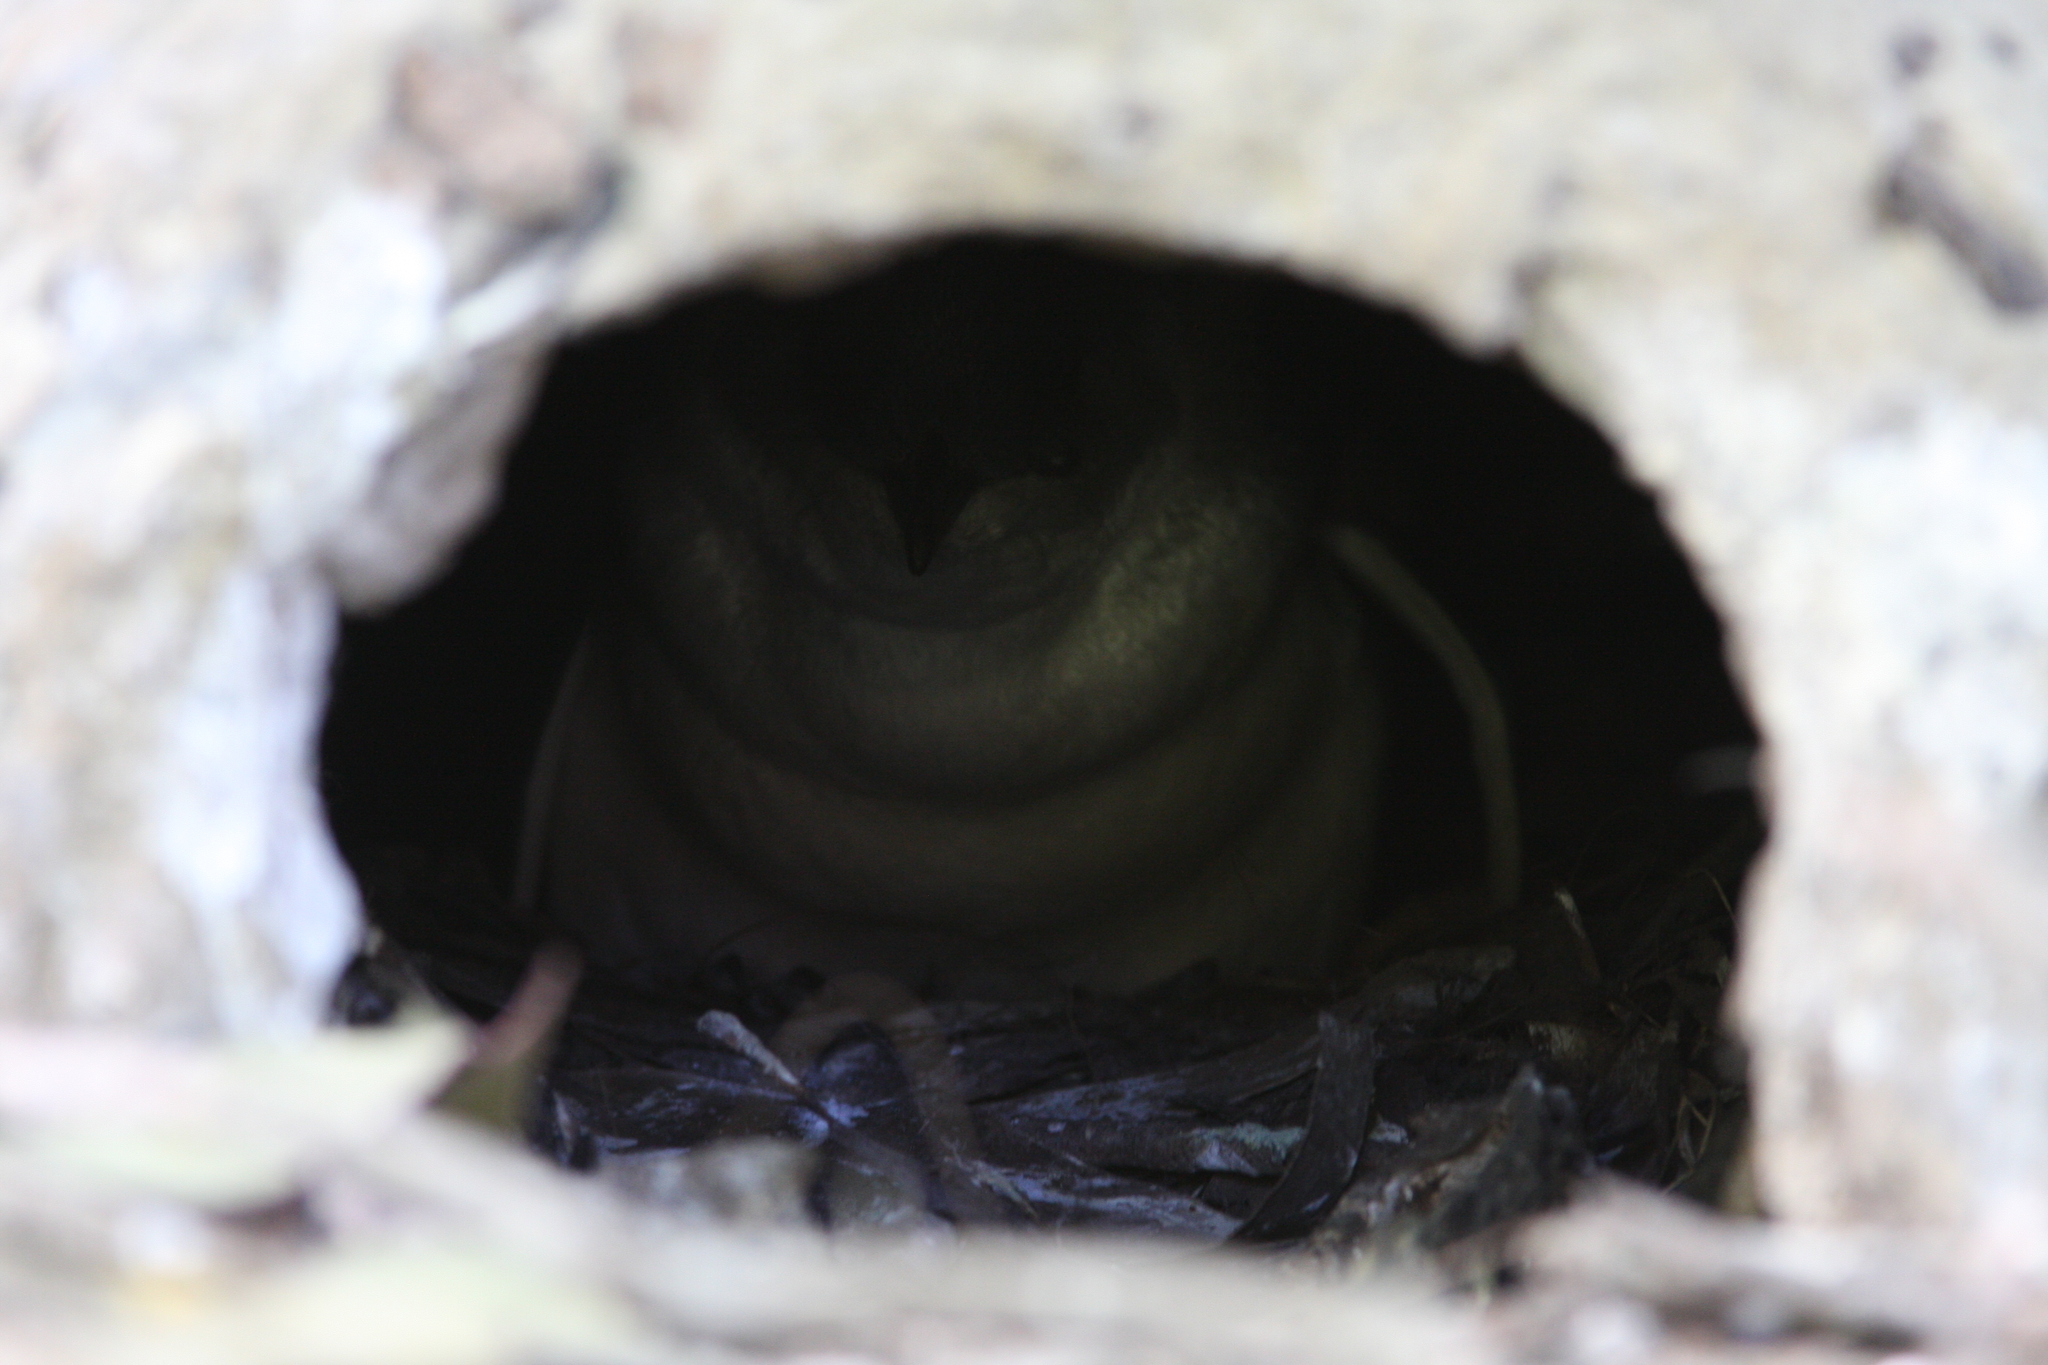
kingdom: Animalia
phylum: Chordata
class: Aves
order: Sphenisciformes
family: Spheniscidae
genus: Eudyptula
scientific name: Eudyptula minor
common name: Little penguin
